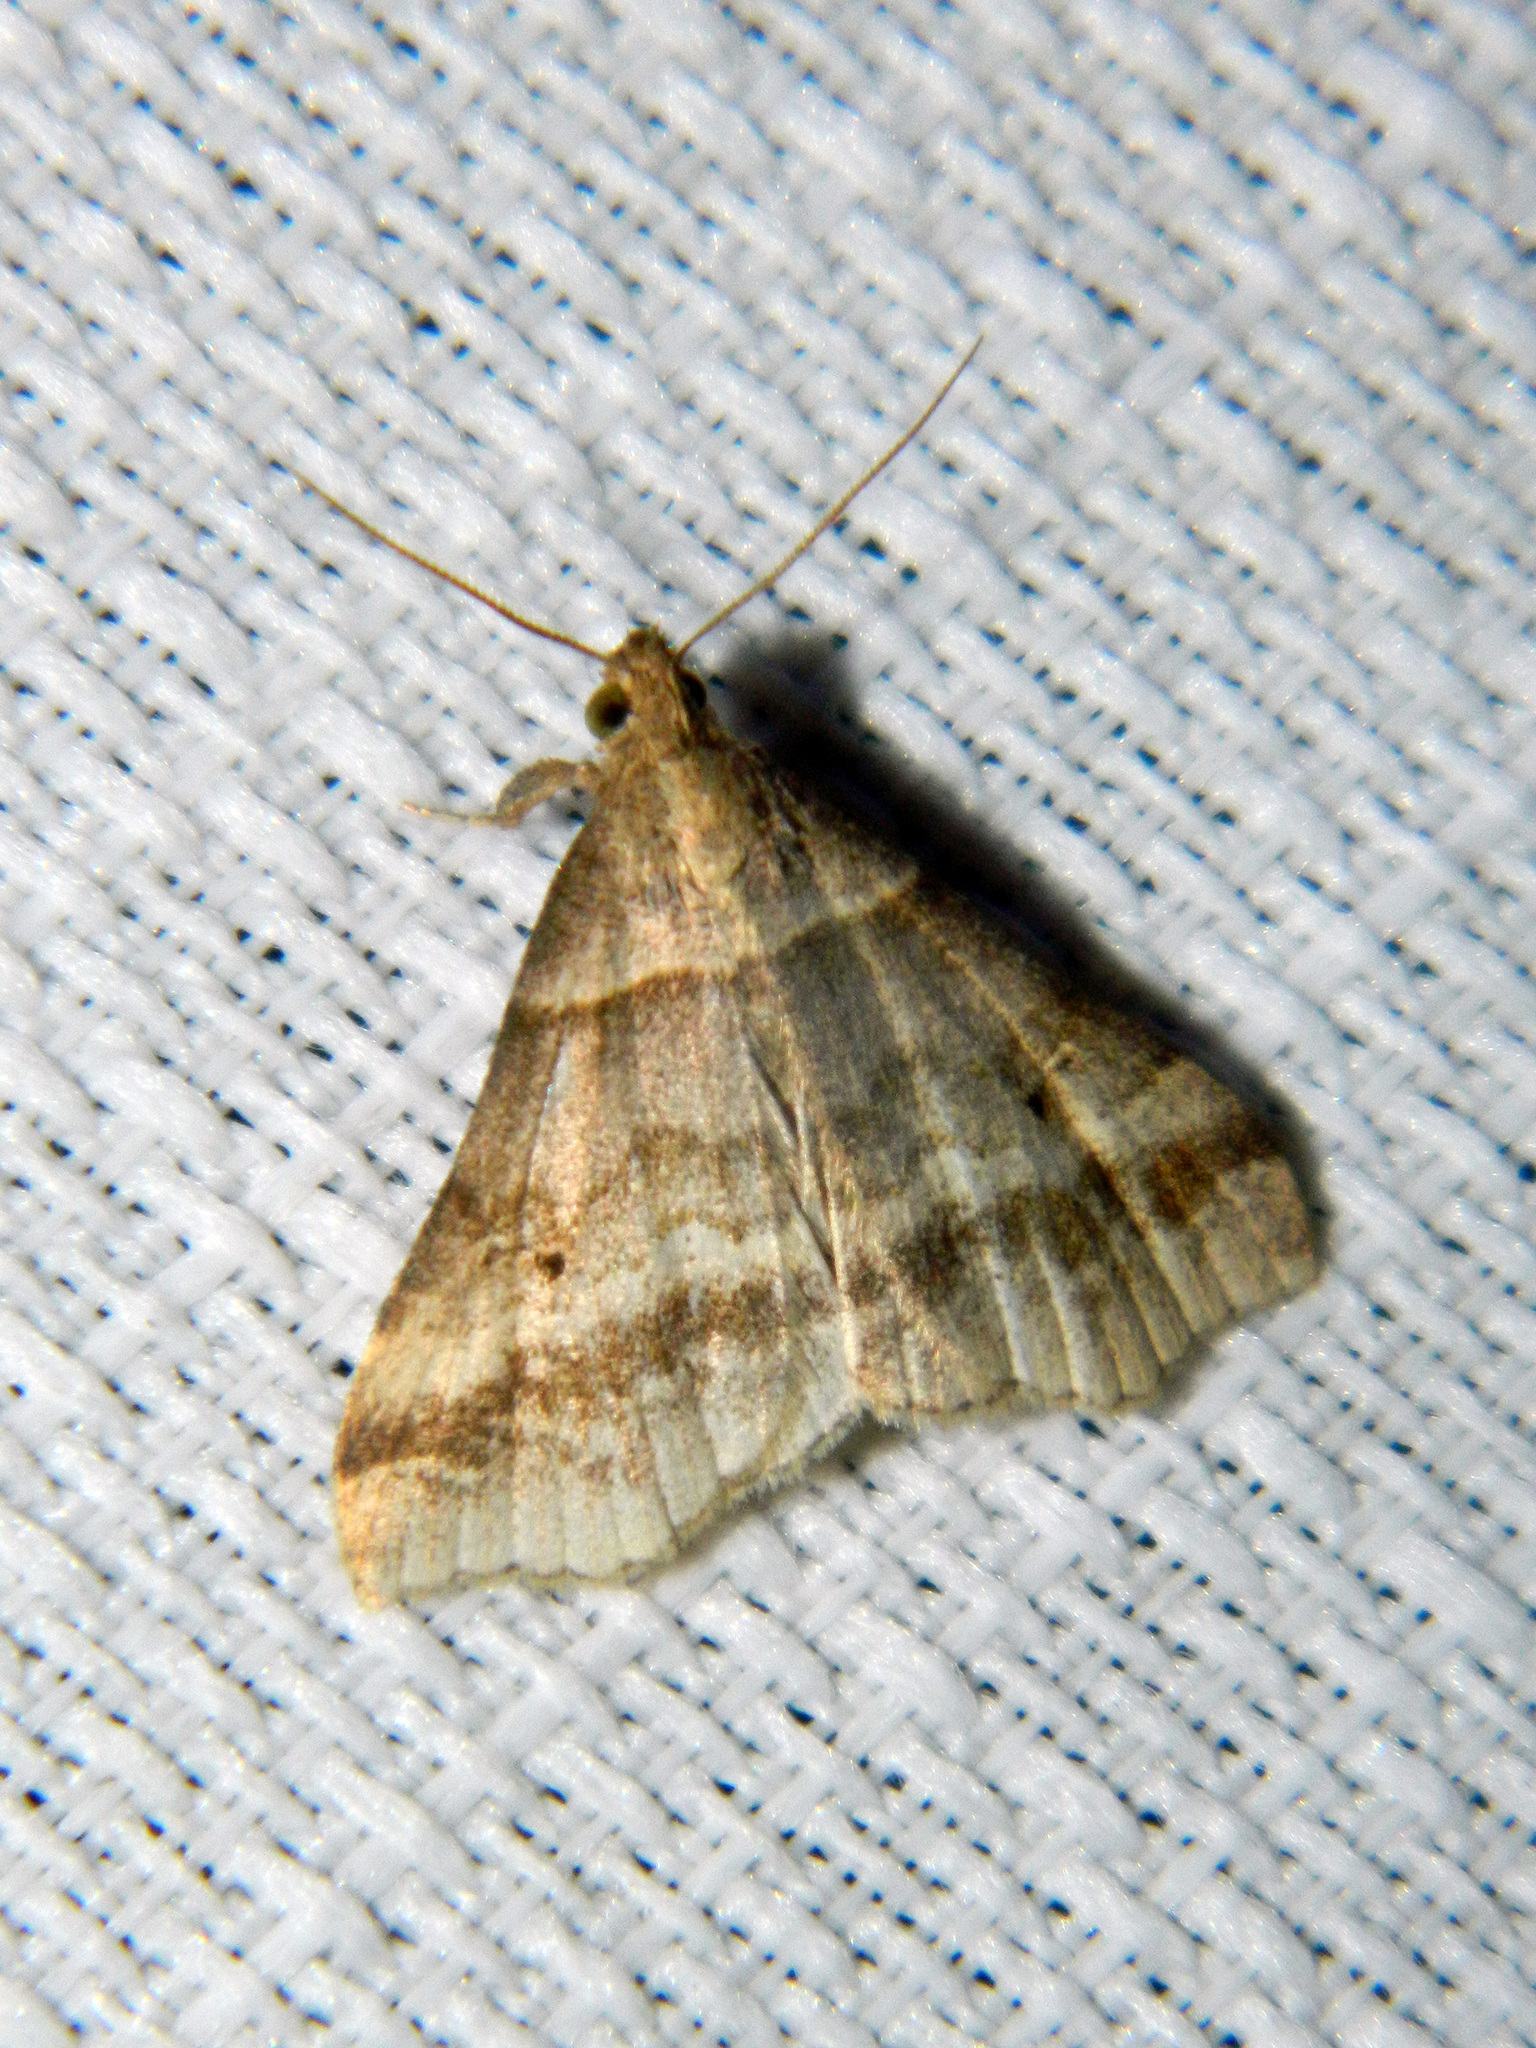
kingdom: Animalia
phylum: Arthropoda
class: Insecta
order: Lepidoptera
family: Erebidae
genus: Phaeolita
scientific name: Phaeolita pyramusalis
